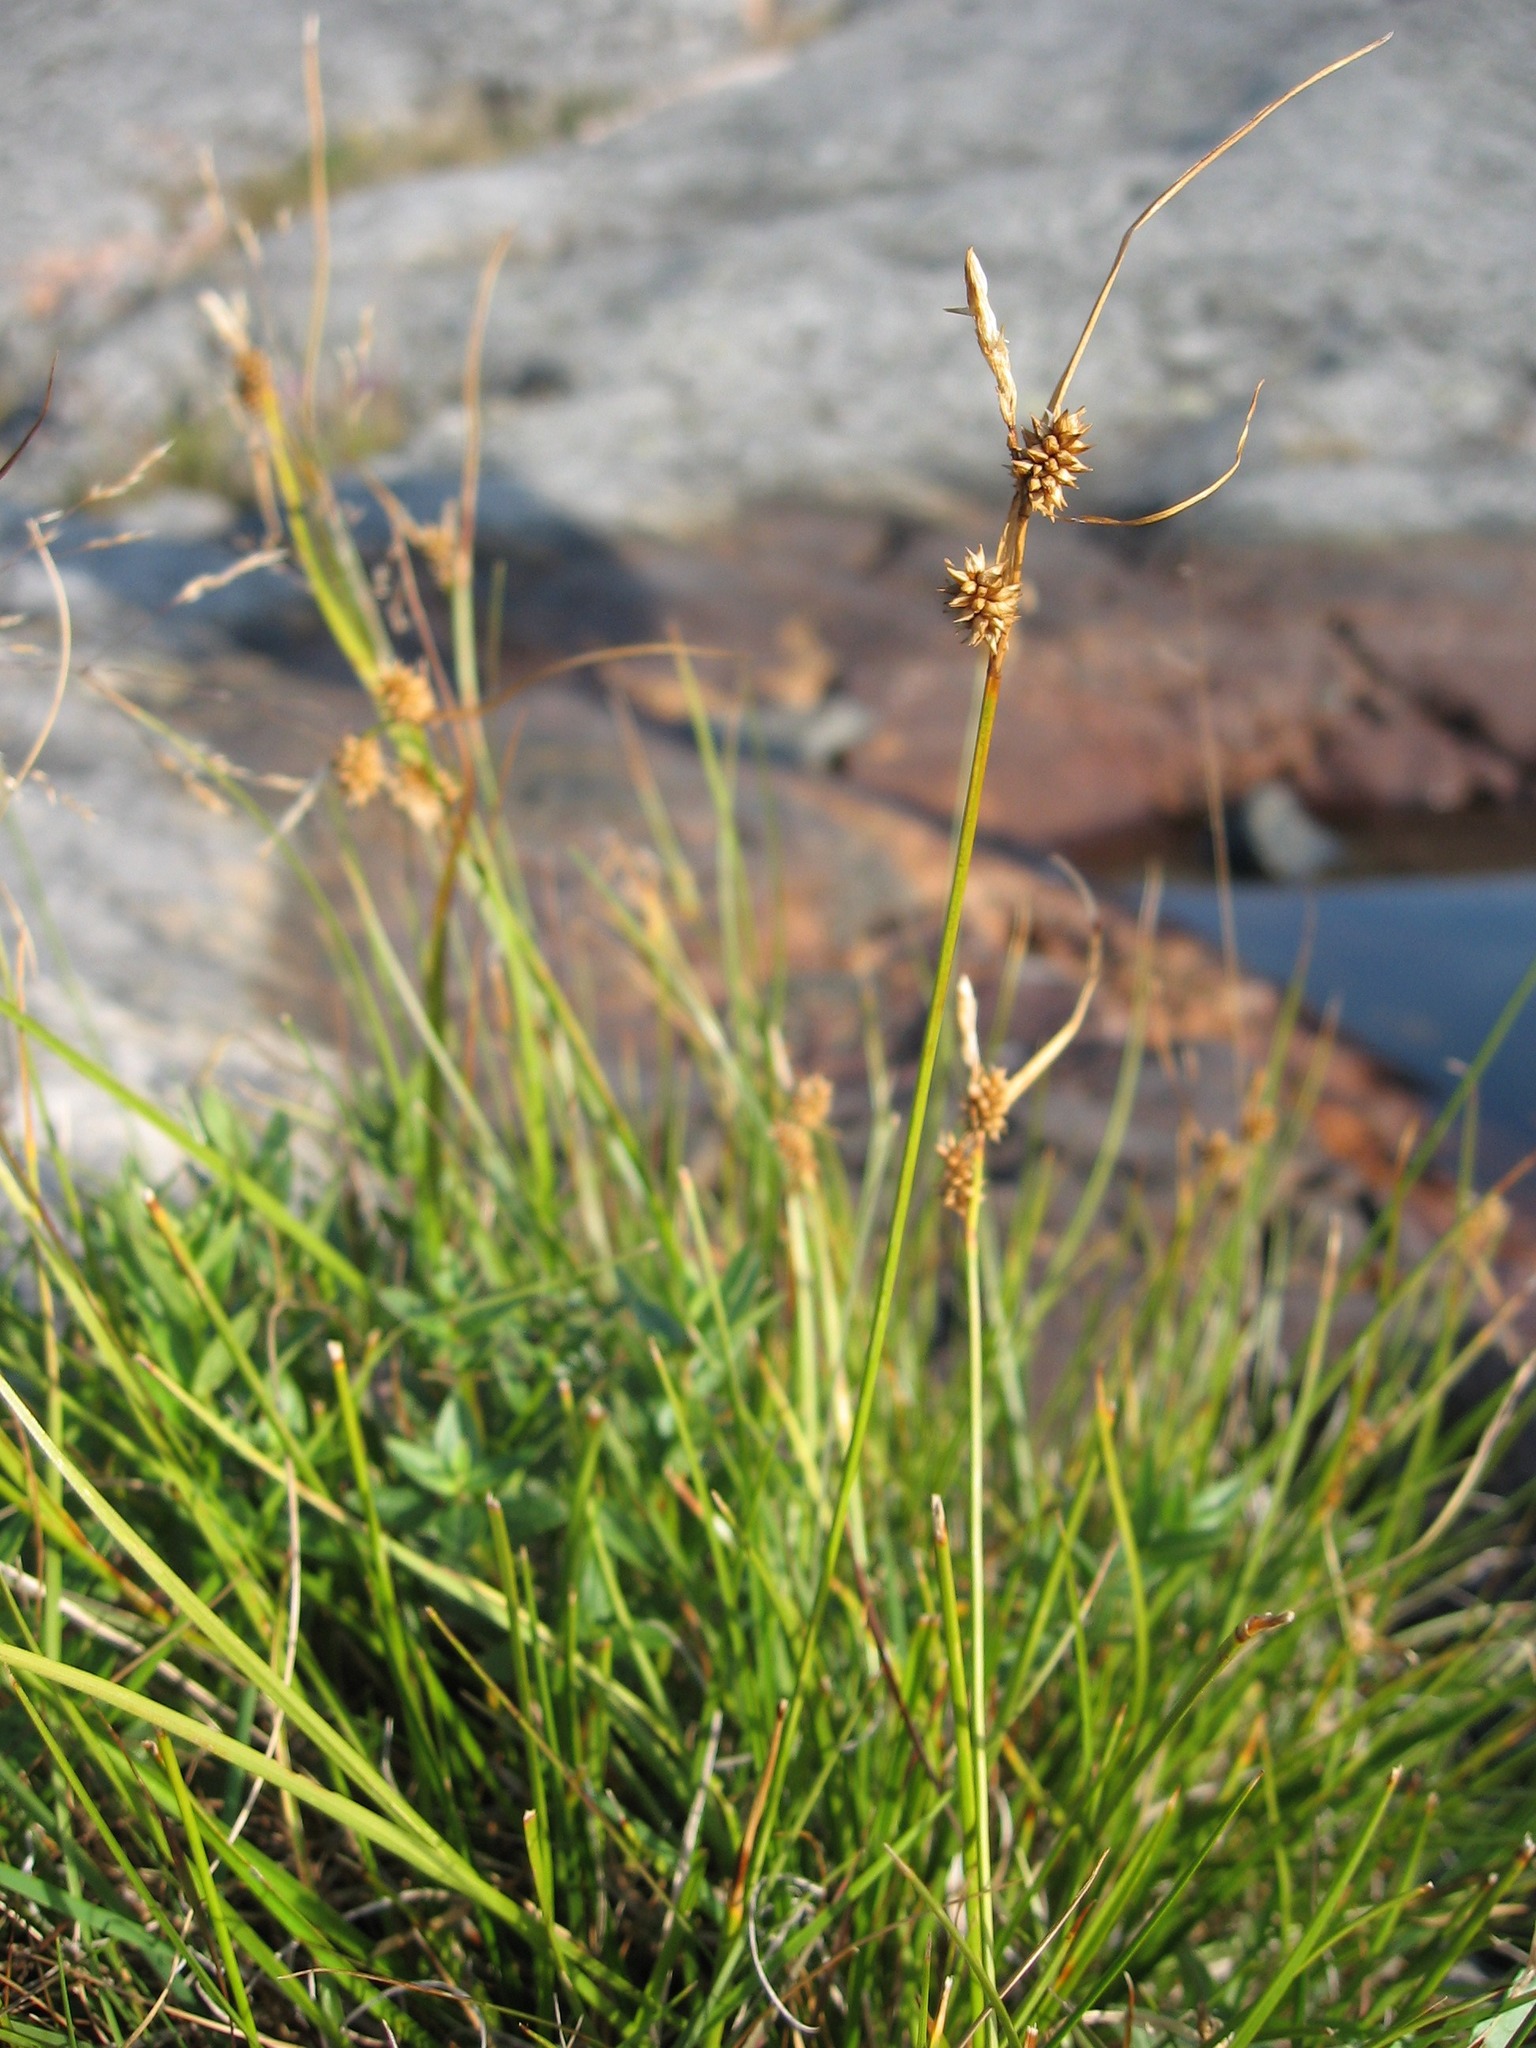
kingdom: Plantae
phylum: Tracheophyta
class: Liliopsida
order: Poales
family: Cyperaceae
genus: Carex
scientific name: Carex
